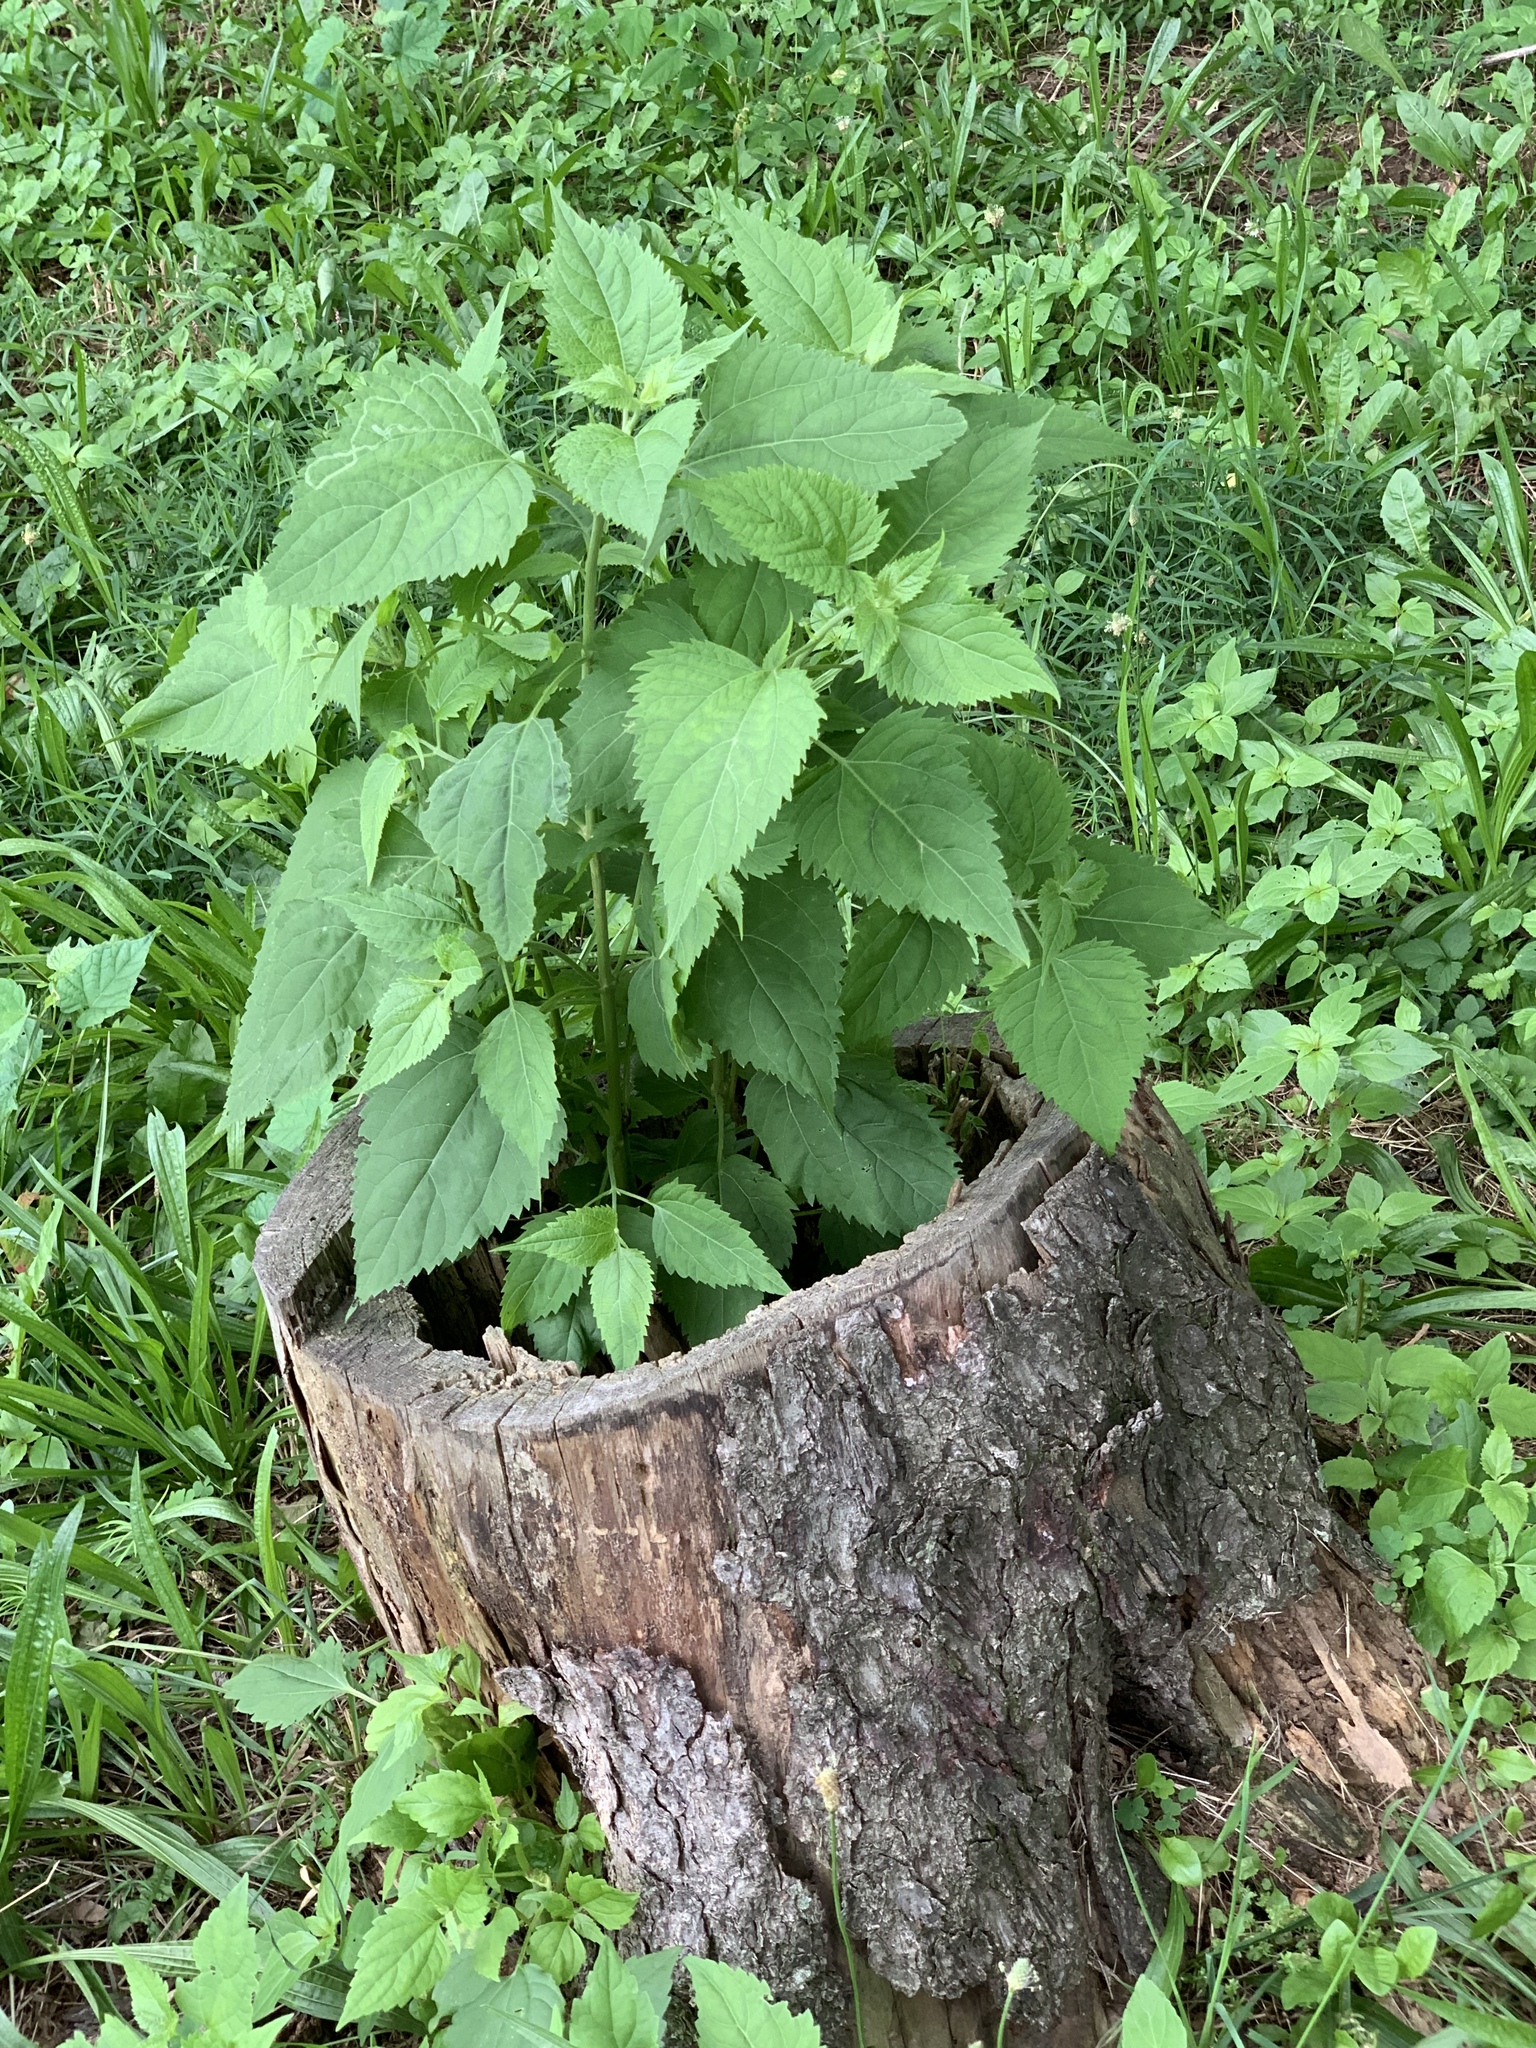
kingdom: Plantae
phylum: Tracheophyta
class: Magnoliopsida
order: Asterales
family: Asteraceae
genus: Ageratina
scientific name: Ageratina altissima
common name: White snakeroot
